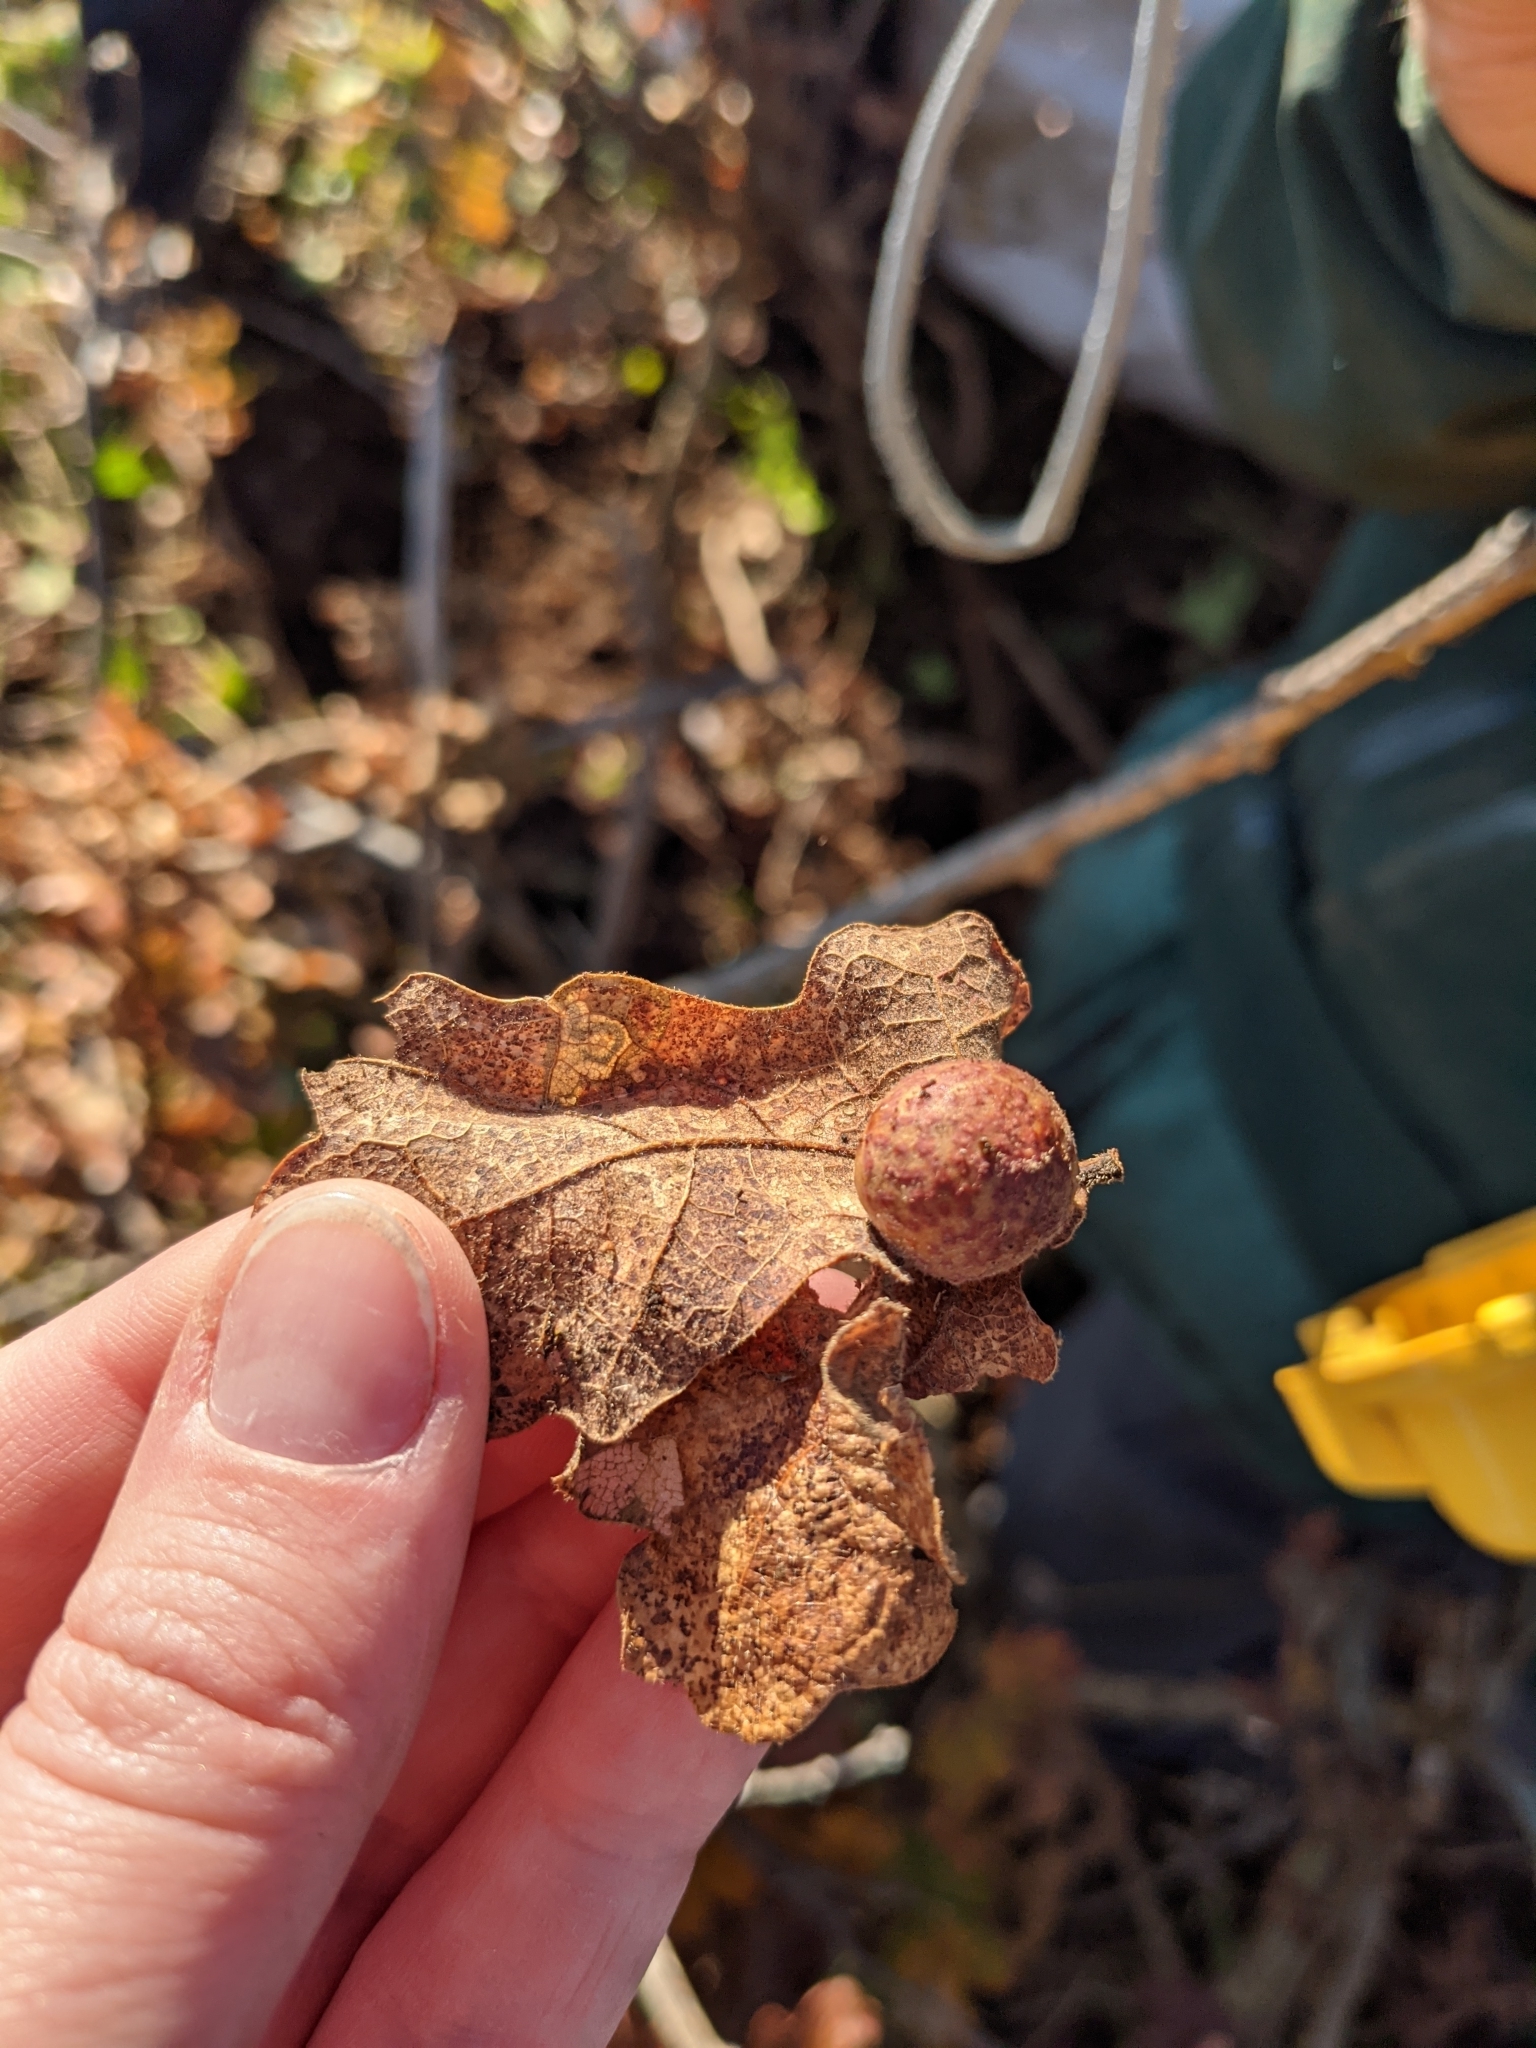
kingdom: Animalia
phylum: Arthropoda
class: Insecta
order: Hymenoptera
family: Cynipidae
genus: Cynips
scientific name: Cynips
